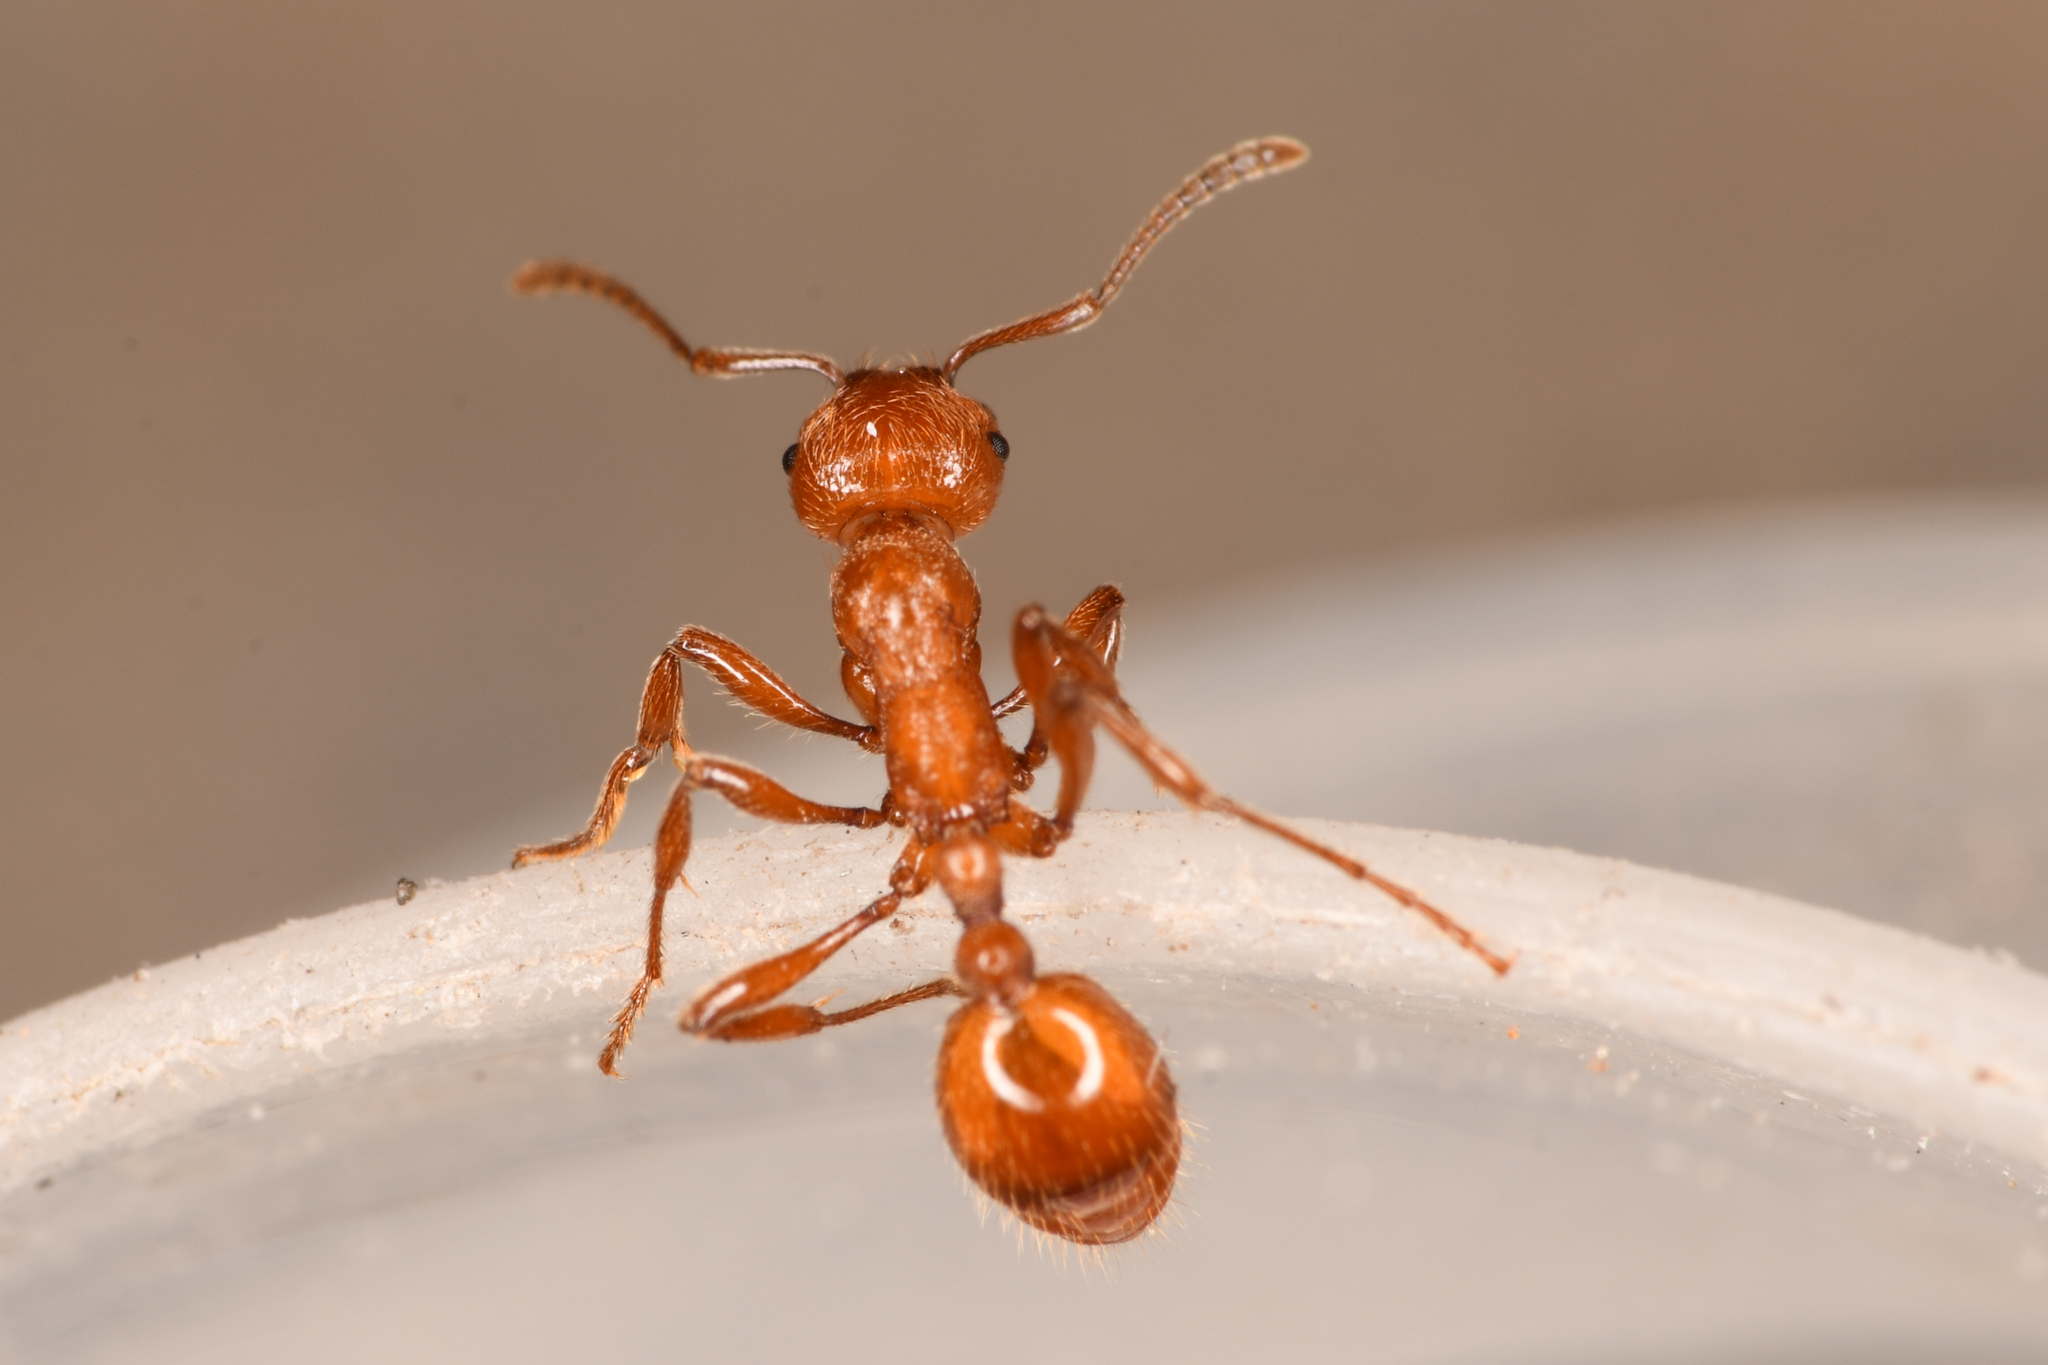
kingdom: Animalia
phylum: Arthropoda
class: Insecta
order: Hymenoptera
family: Formicidae
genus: Manica
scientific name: Manica hunteri
